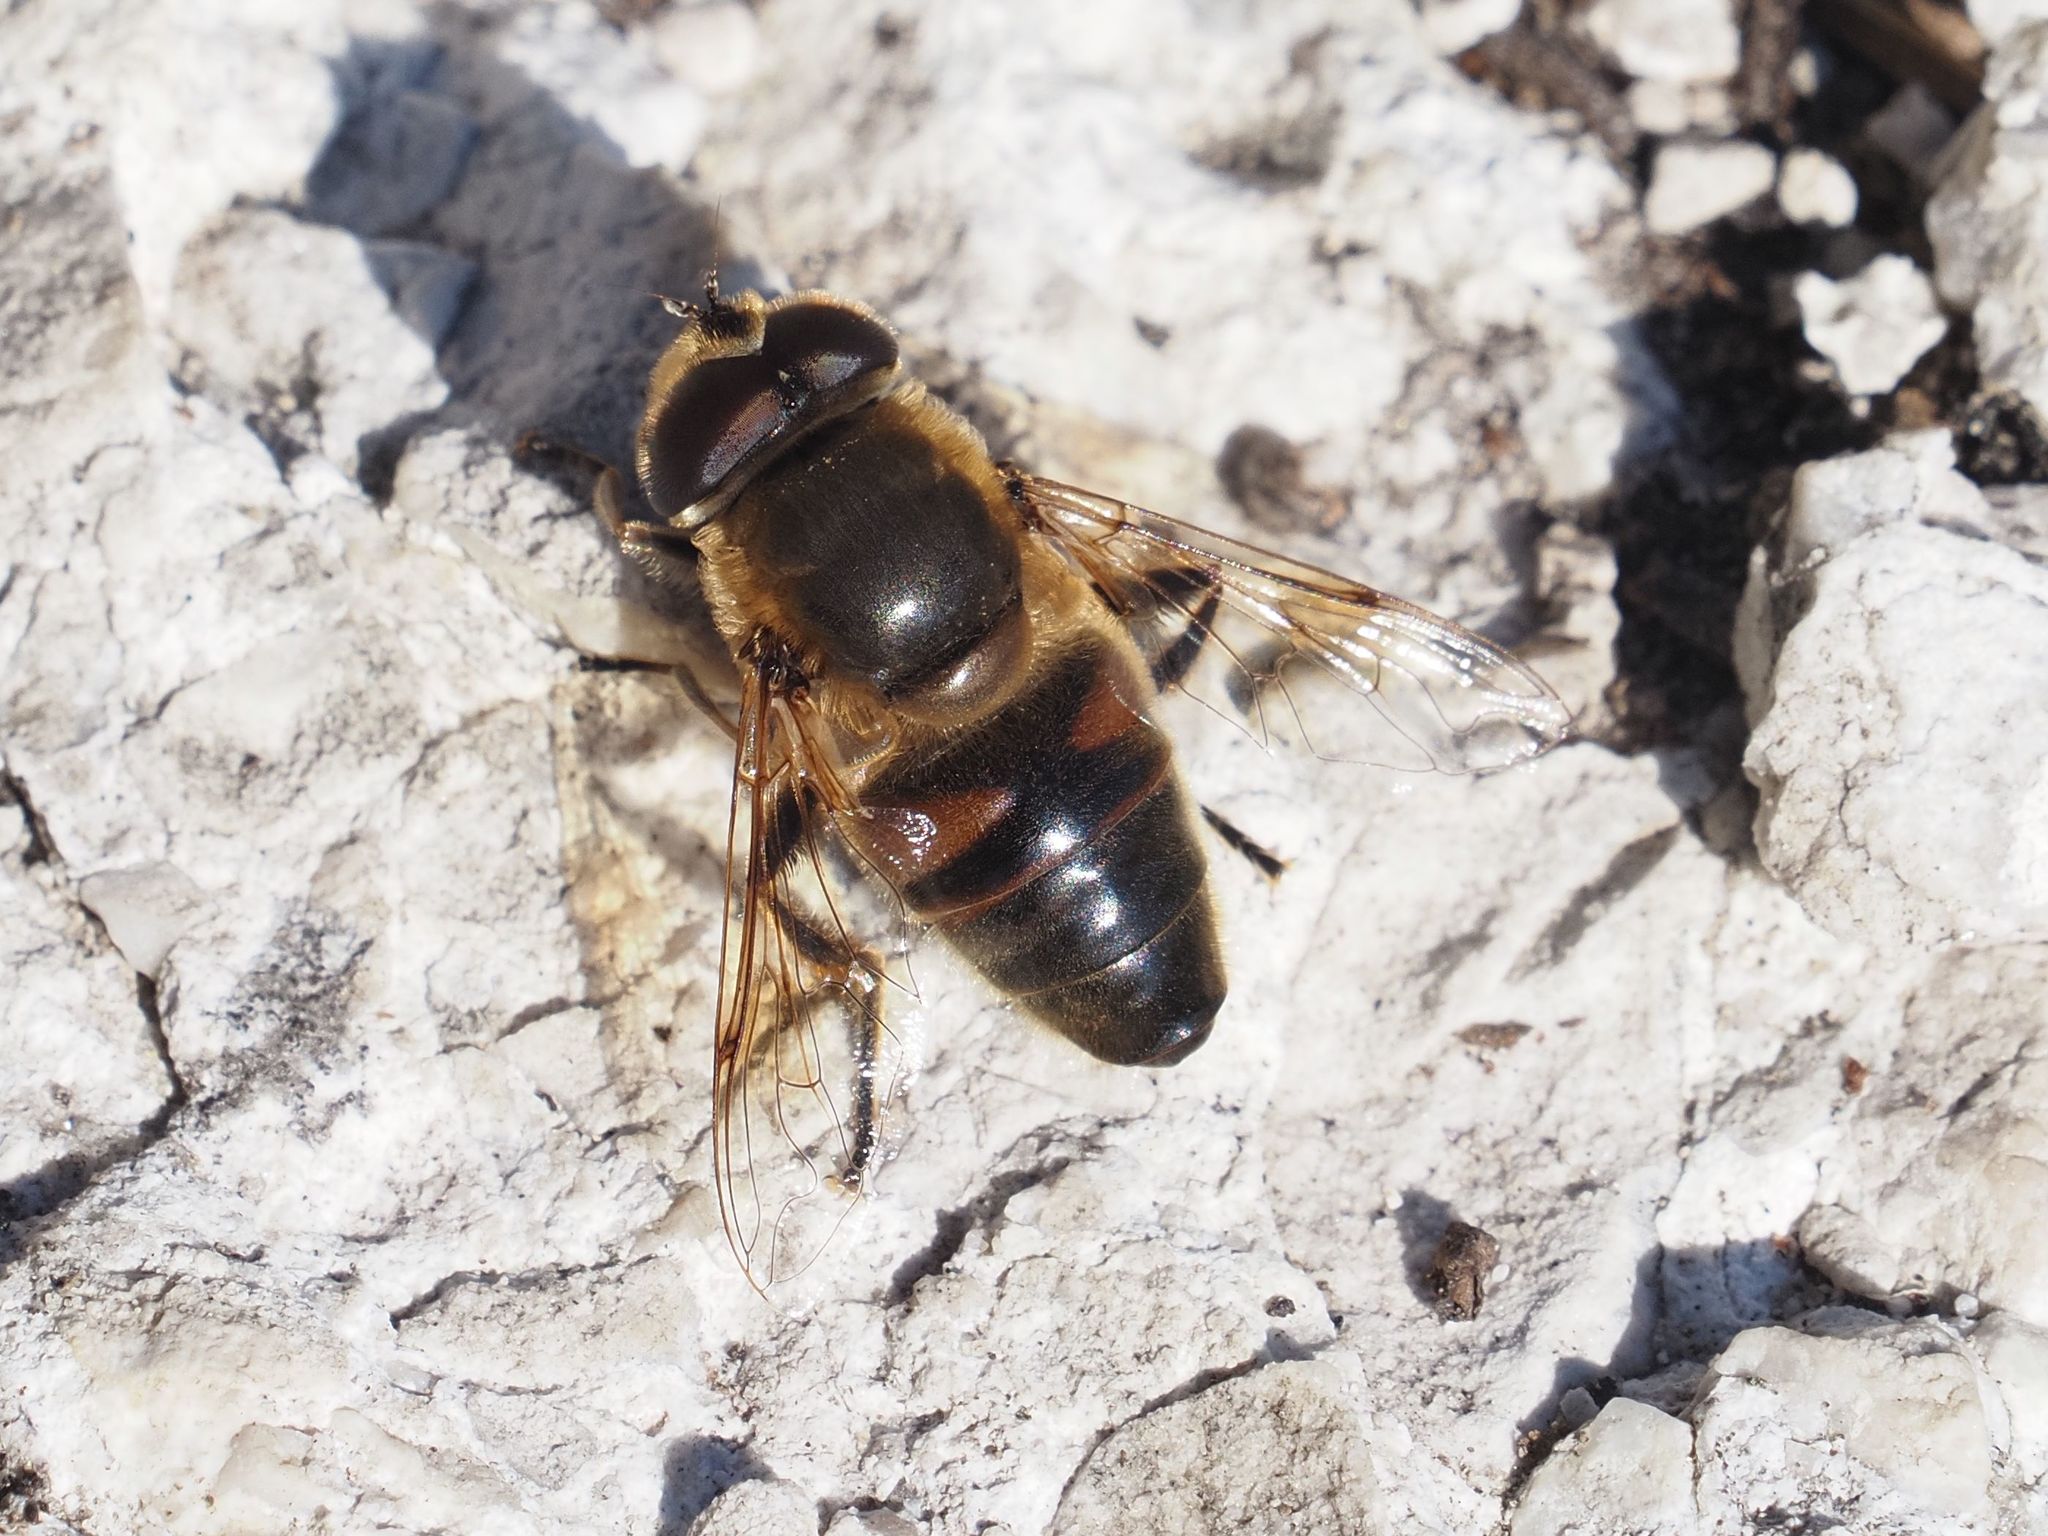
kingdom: Animalia
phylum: Arthropoda
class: Insecta
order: Diptera
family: Syrphidae
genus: Eristalis
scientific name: Eristalis tenax
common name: Drone fly
